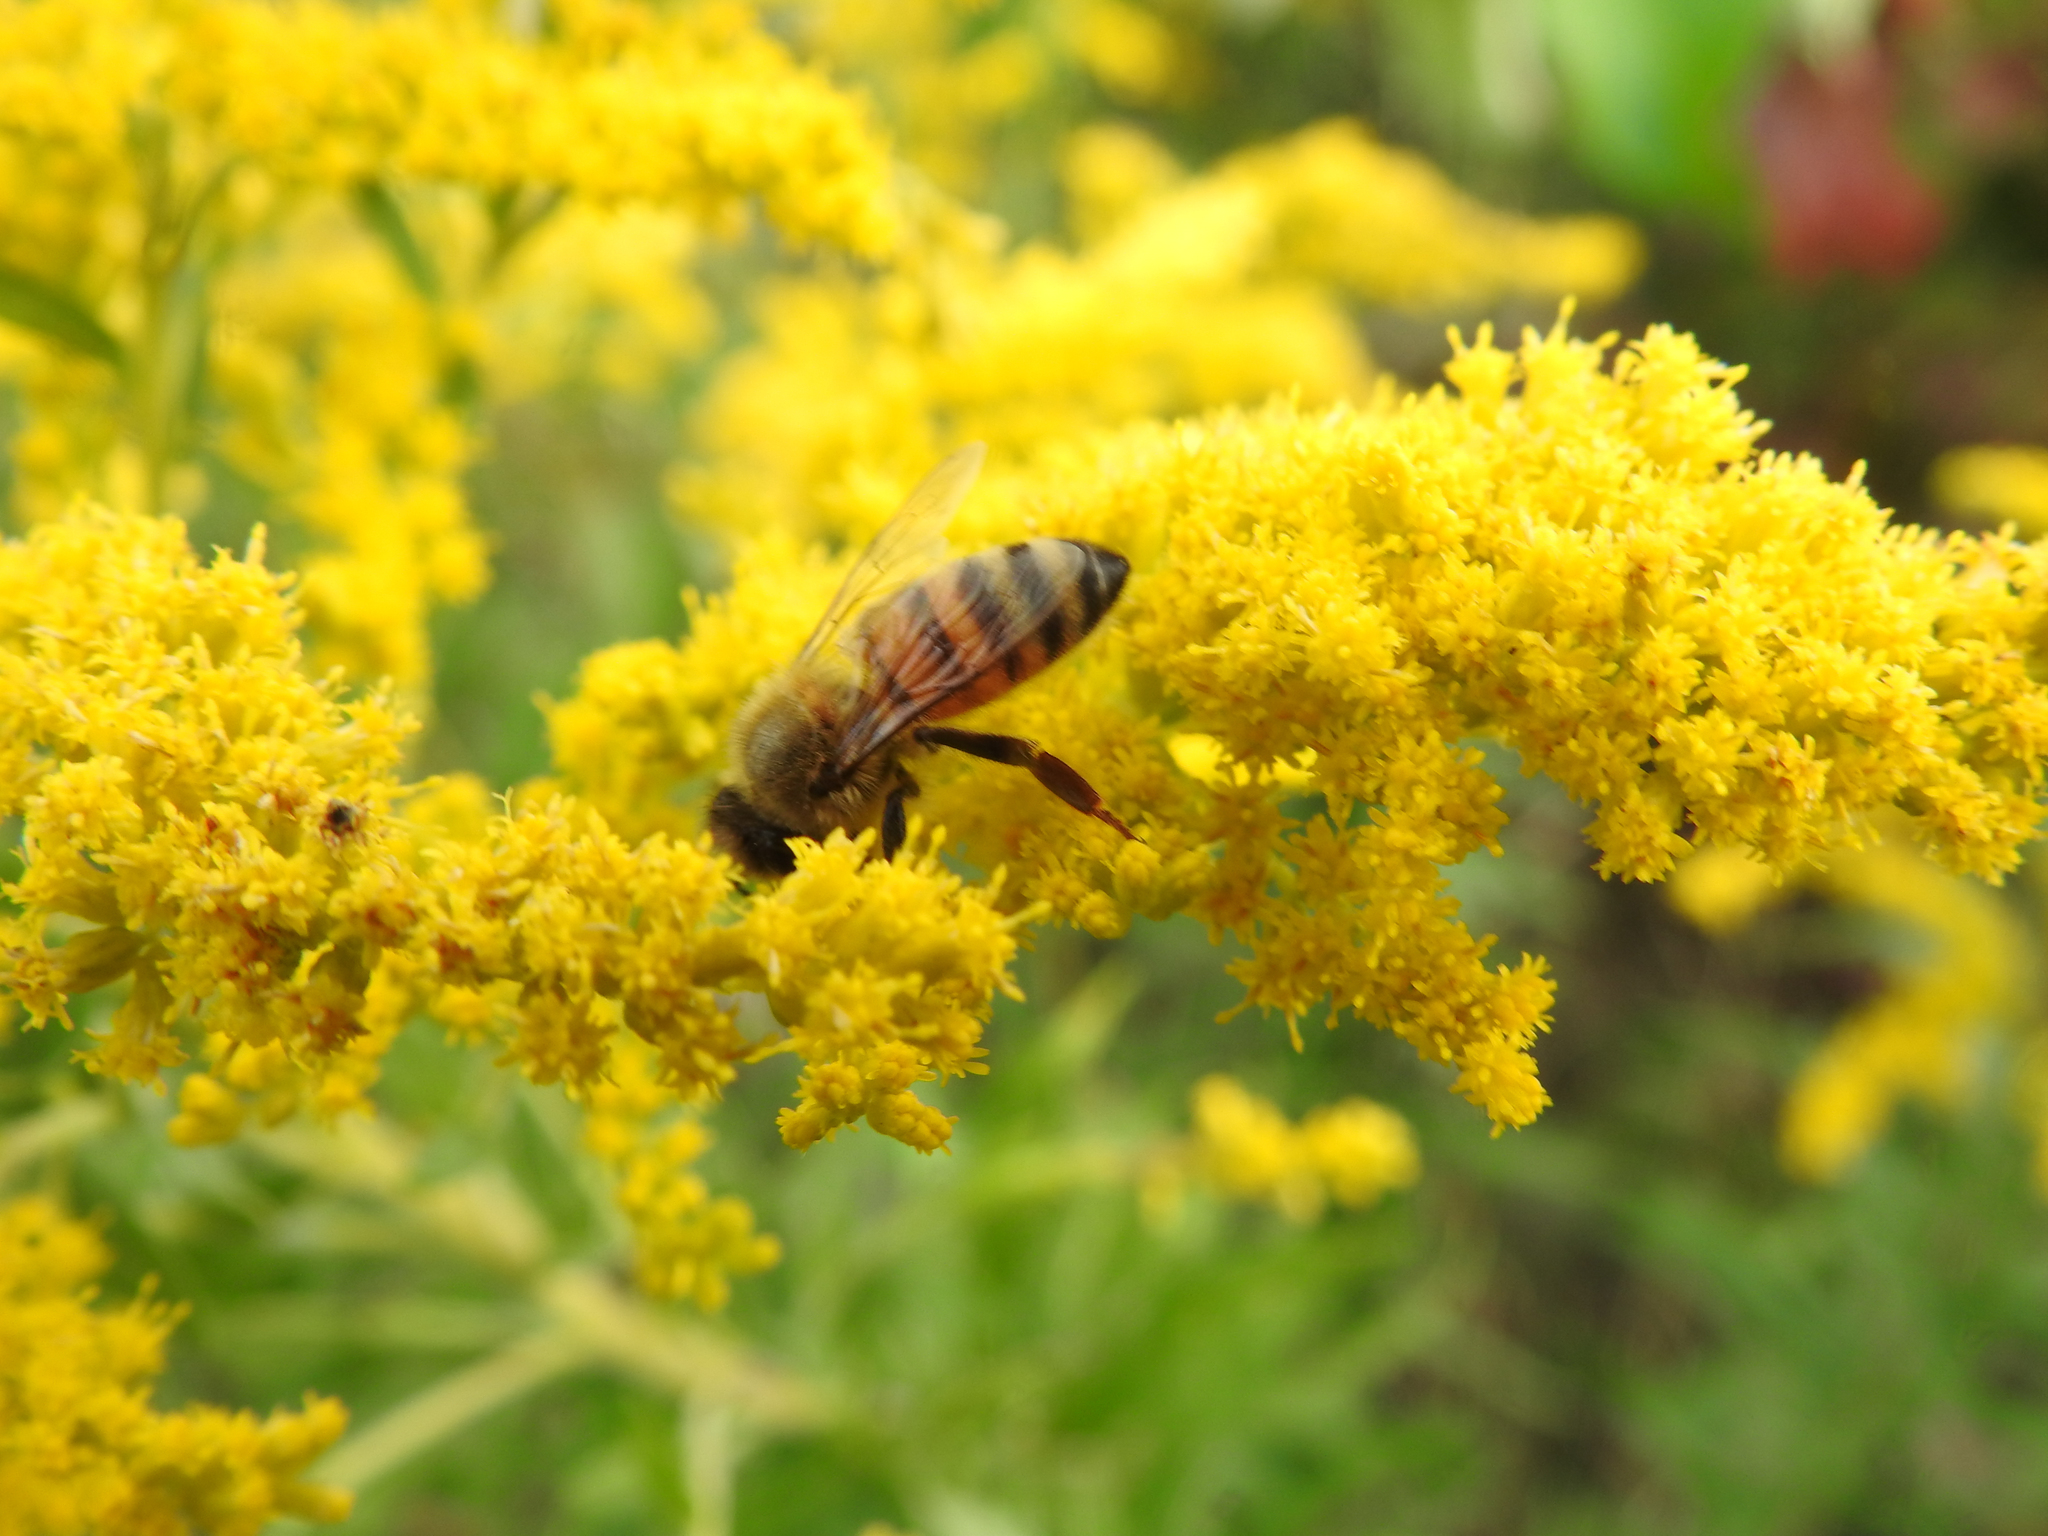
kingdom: Animalia
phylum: Arthropoda
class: Insecta
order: Hymenoptera
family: Apidae
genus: Apis
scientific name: Apis mellifera
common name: Honey bee
